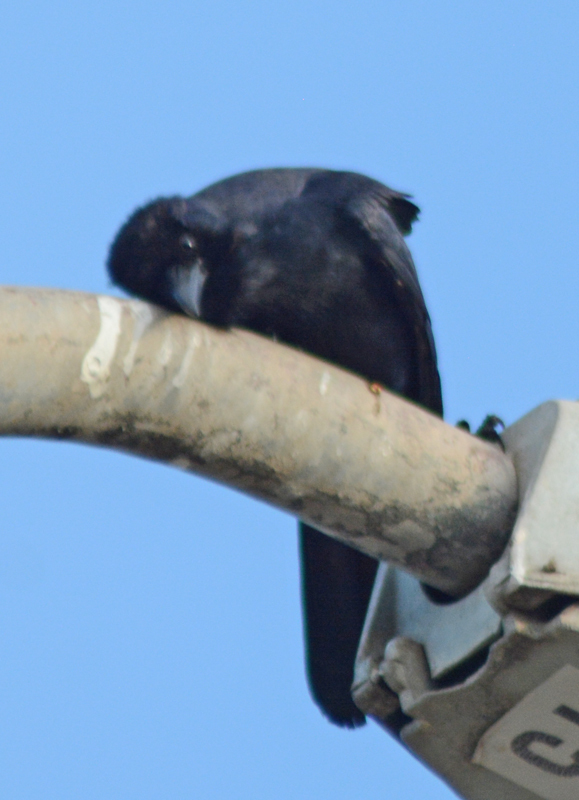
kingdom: Animalia
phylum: Chordata
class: Aves
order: Passeriformes
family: Corvidae
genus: Corvus
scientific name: Corvus sinaloae
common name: Sinaloa crow
